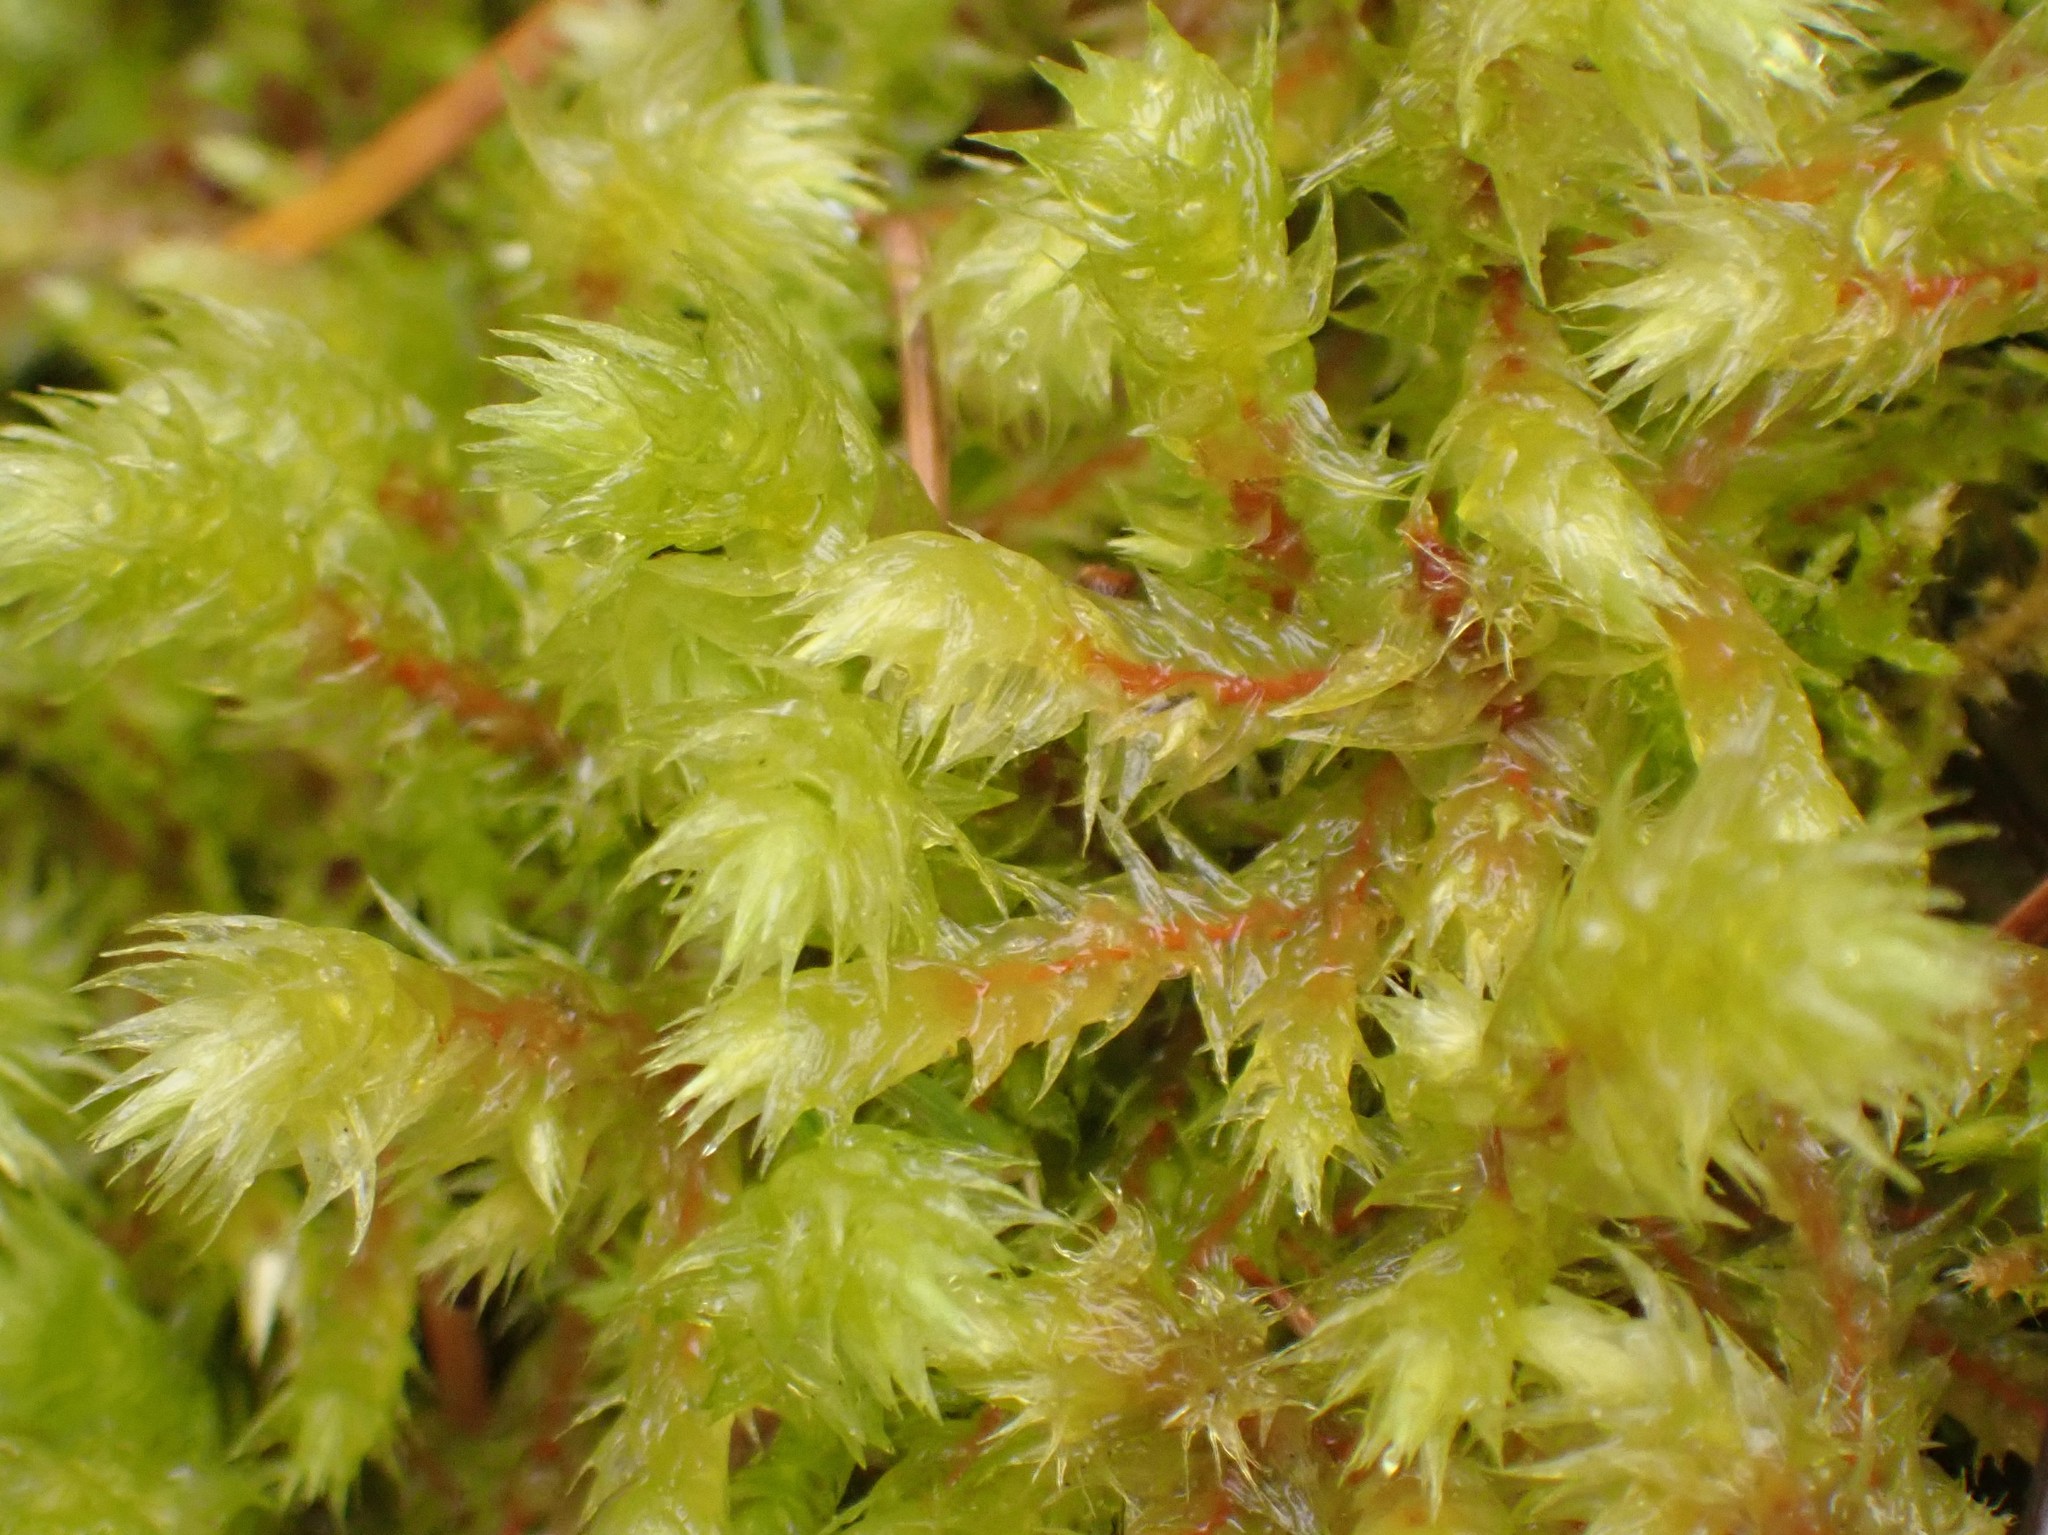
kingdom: Plantae
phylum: Bryophyta
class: Bryopsida
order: Hypnales
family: Hylocomiaceae
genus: Hylocomiadelphus
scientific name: Hylocomiadelphus triquetrus
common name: Rough goose neck moss
